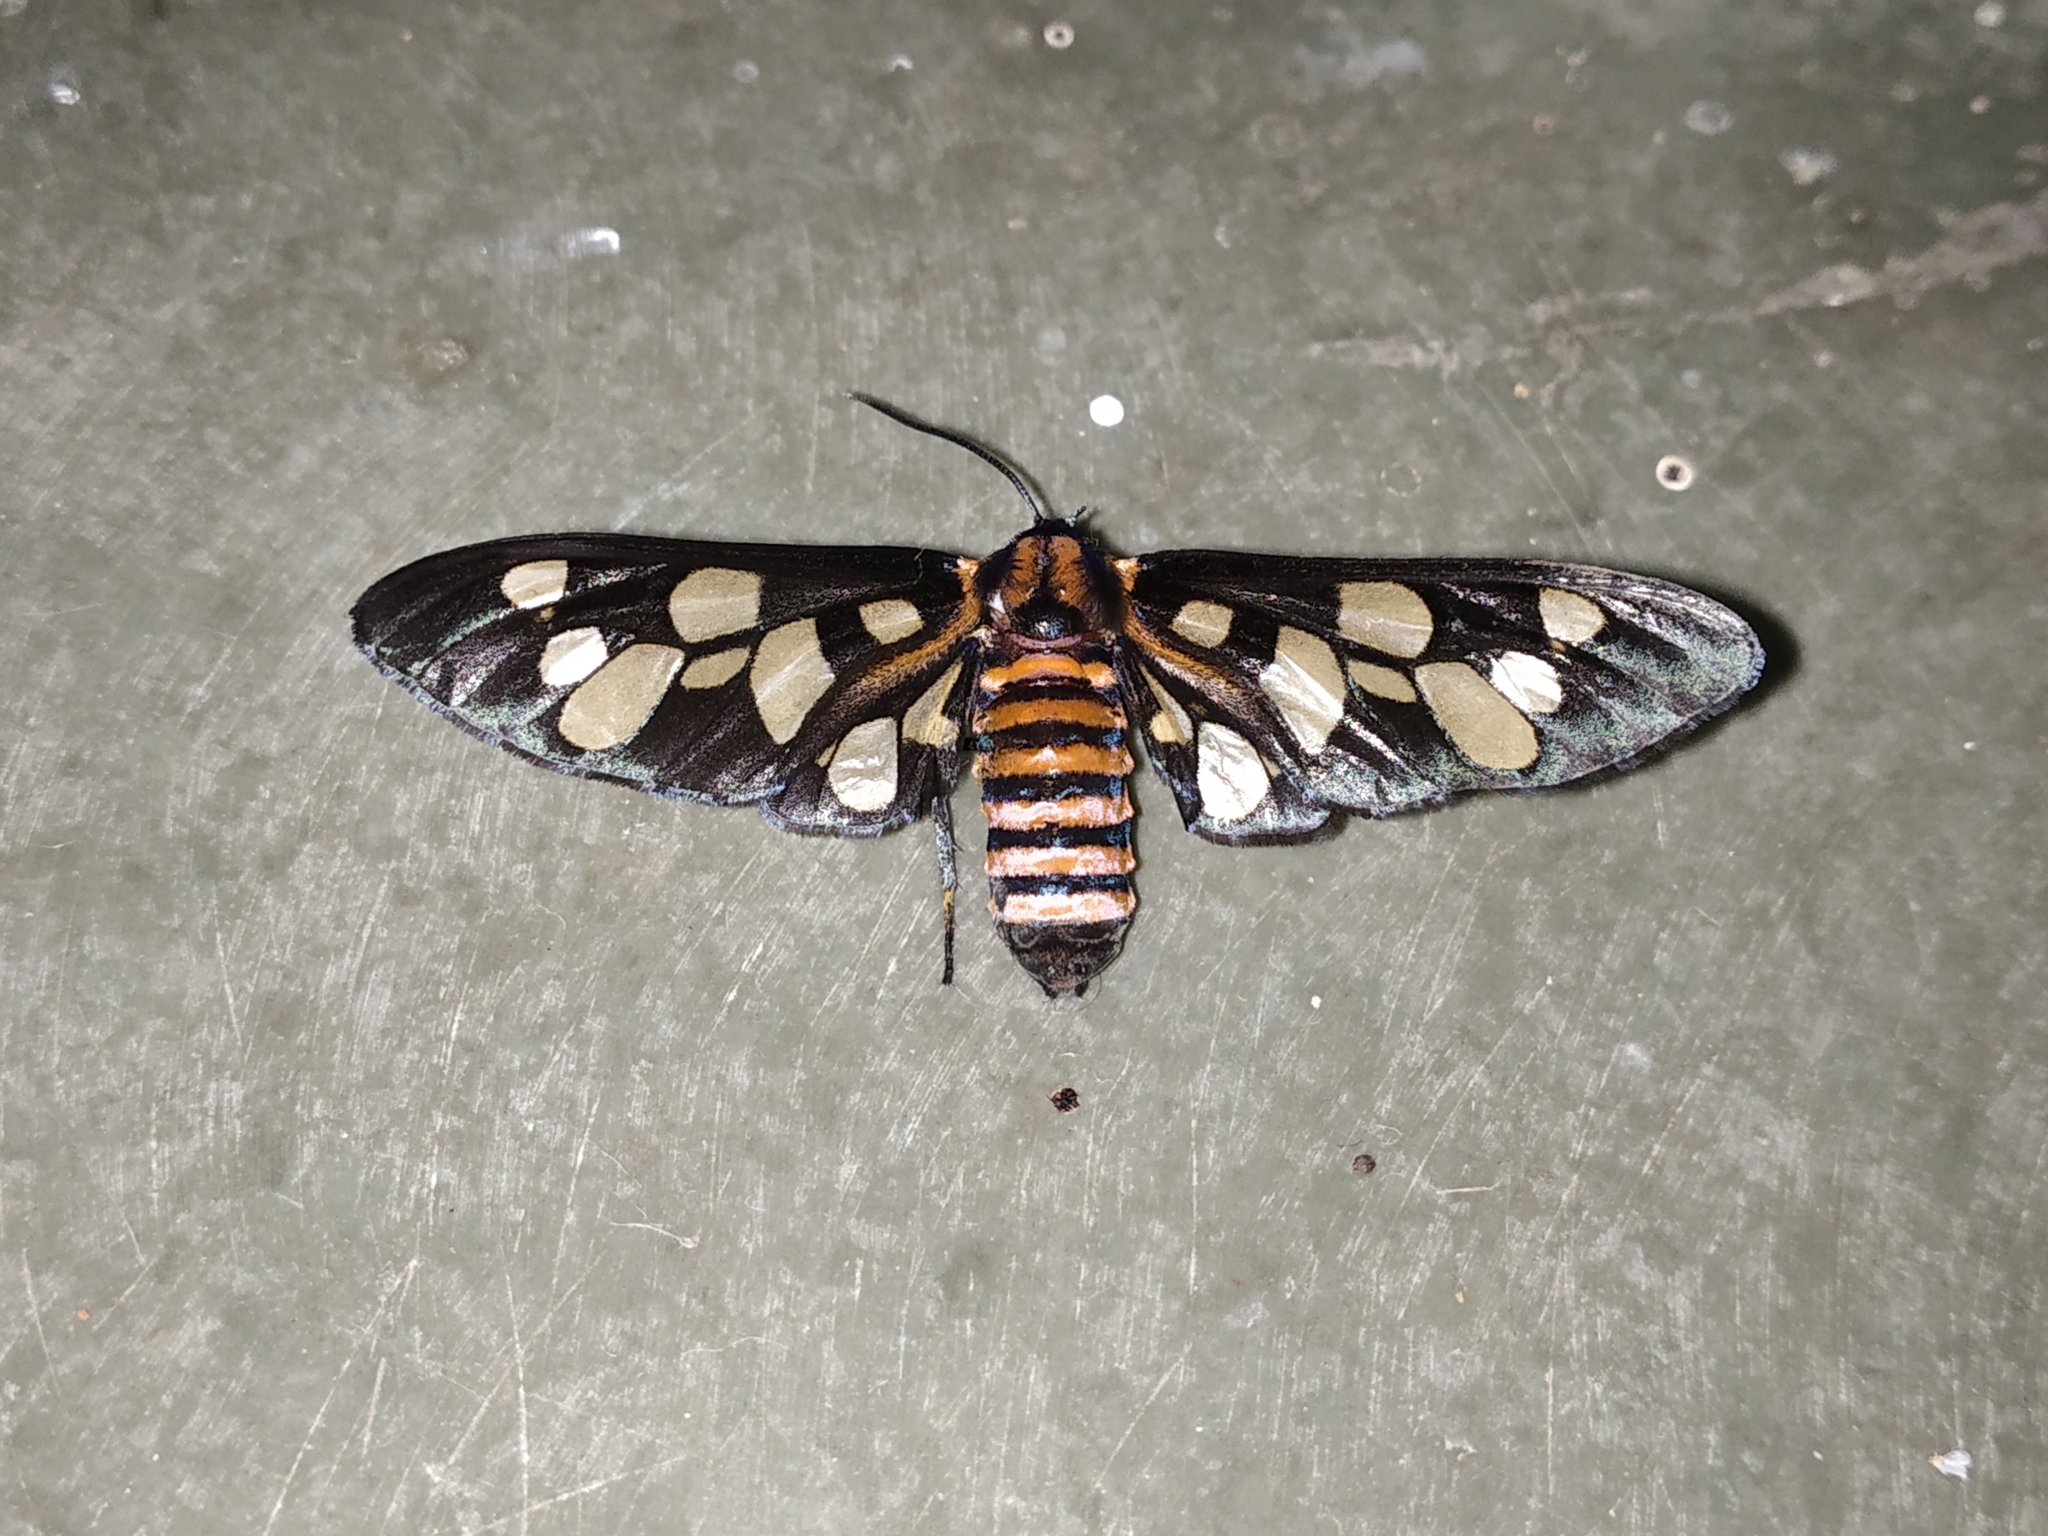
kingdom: Animalia
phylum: Arthropoda
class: Insecta
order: Lepidoptera
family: Erebidae
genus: Amata
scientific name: Amata passalis
